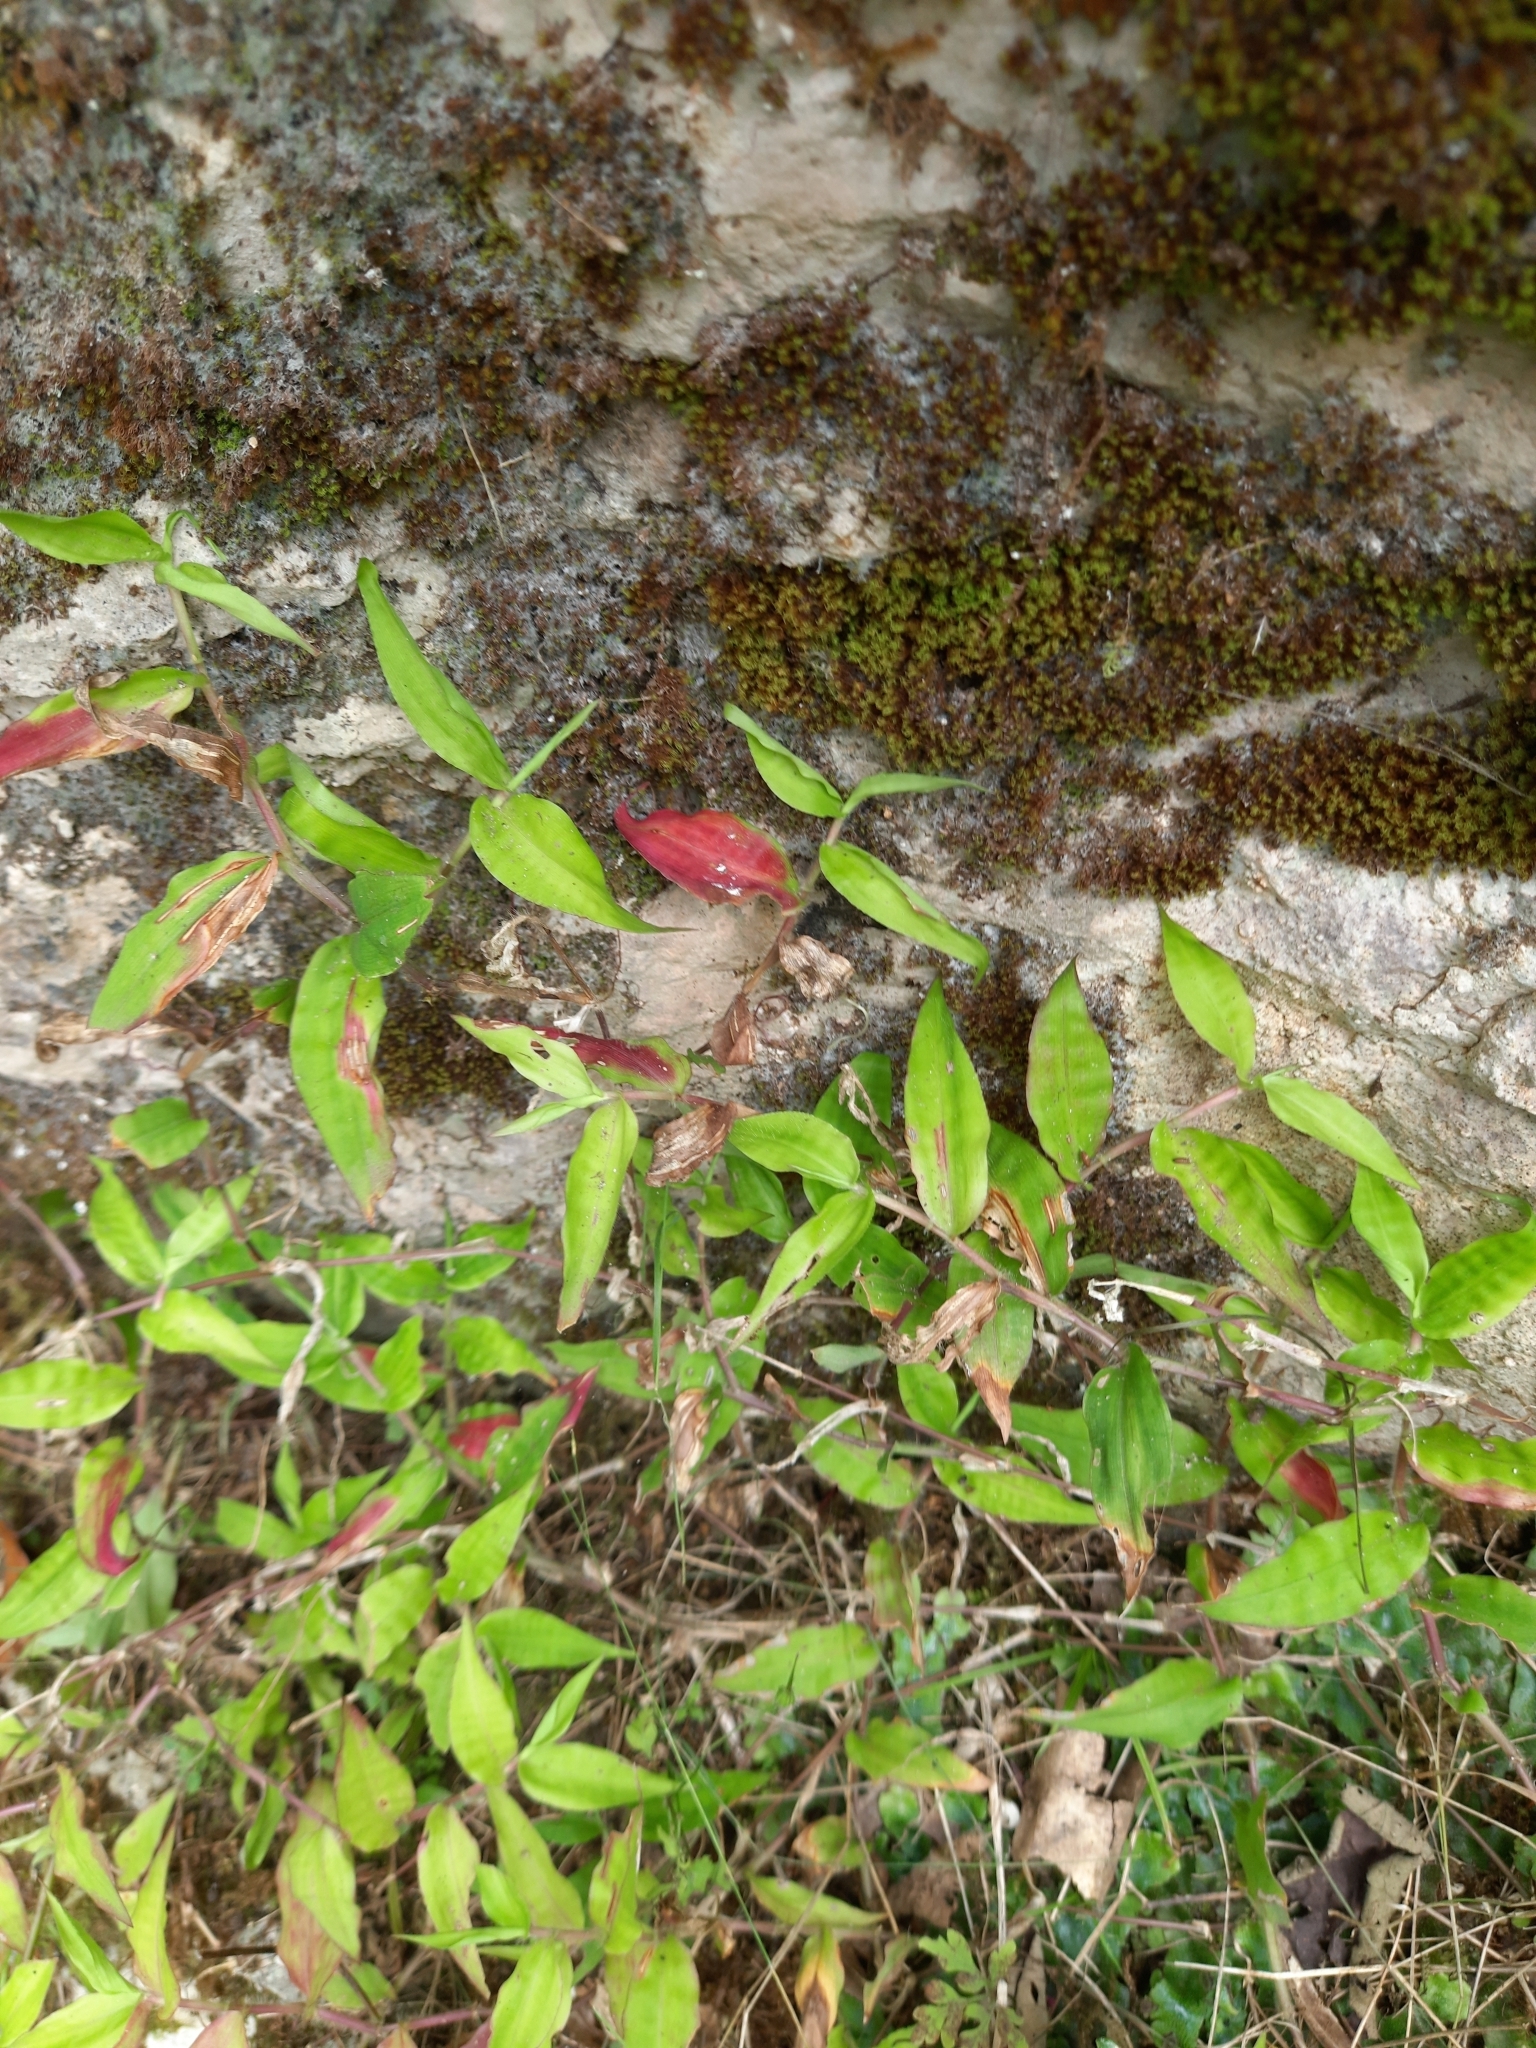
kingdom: Plantae
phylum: Tracheophyta
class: Liliopsida
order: Commelinales
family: Commelinaceae
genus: Commelina
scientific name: Commelina communis
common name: Asiatic dayflower
